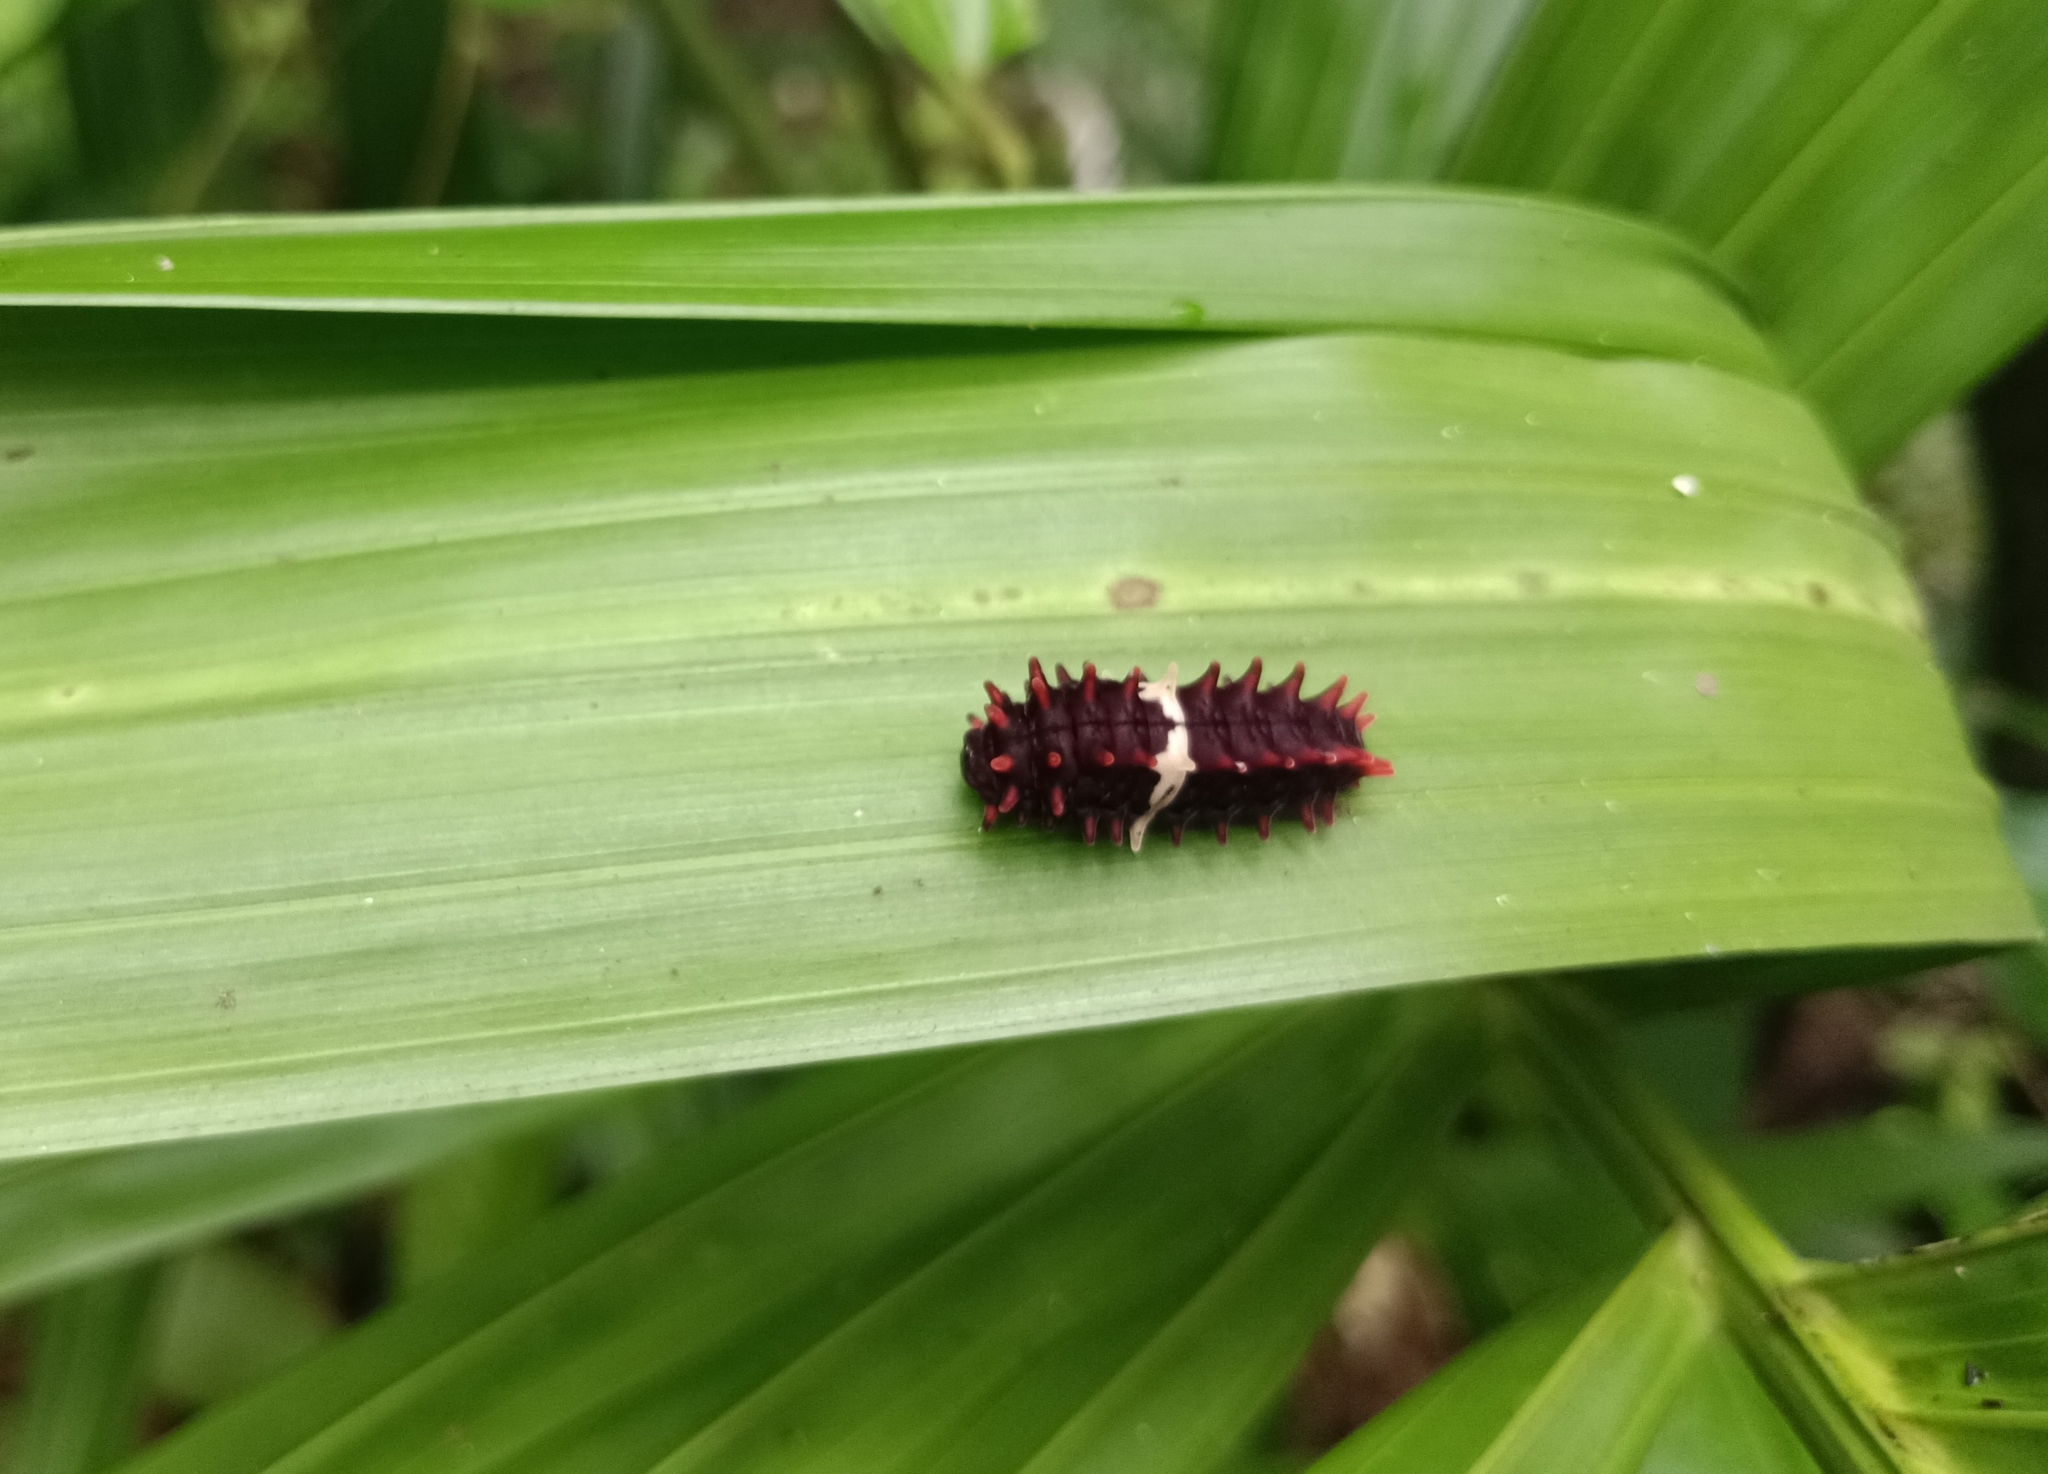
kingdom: Animalia
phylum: Arthropoda
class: Insecta
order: Lepidoptera
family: Papilionidae
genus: Pachliopta
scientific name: Pachliopta aristolochiae
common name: Common rose
